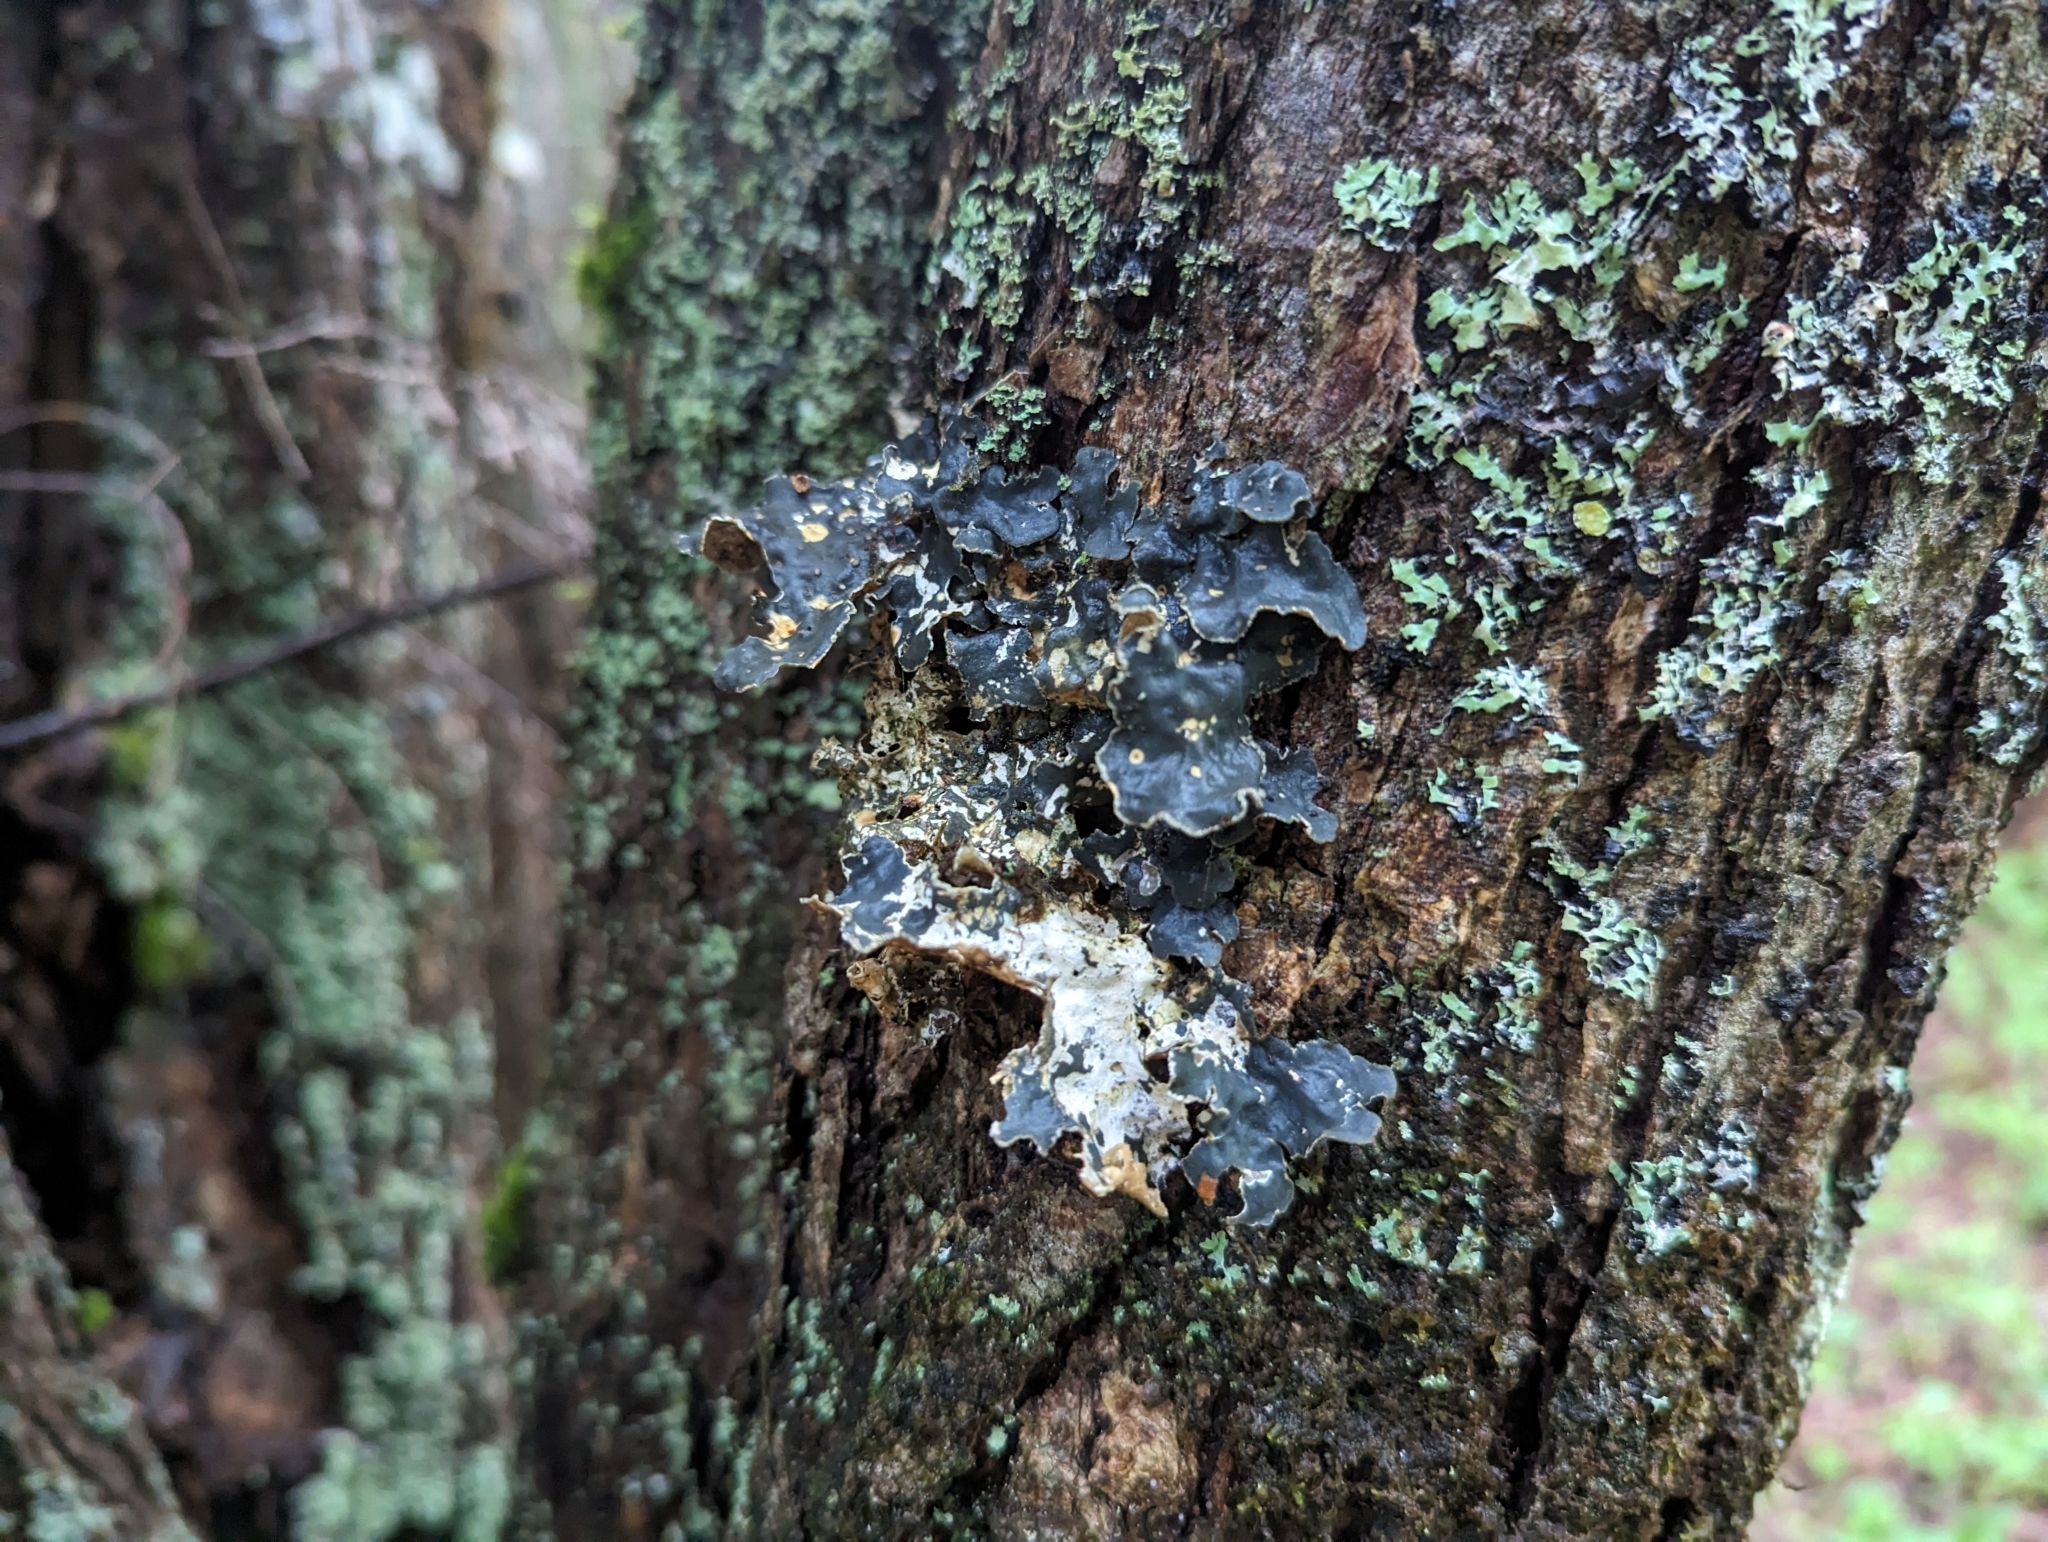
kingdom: Fungi
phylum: Ascomycota
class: Lecanoromycetes
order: Peltigerales
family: Lobariaceae
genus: Lobarina
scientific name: Lobarina scrobiculata
